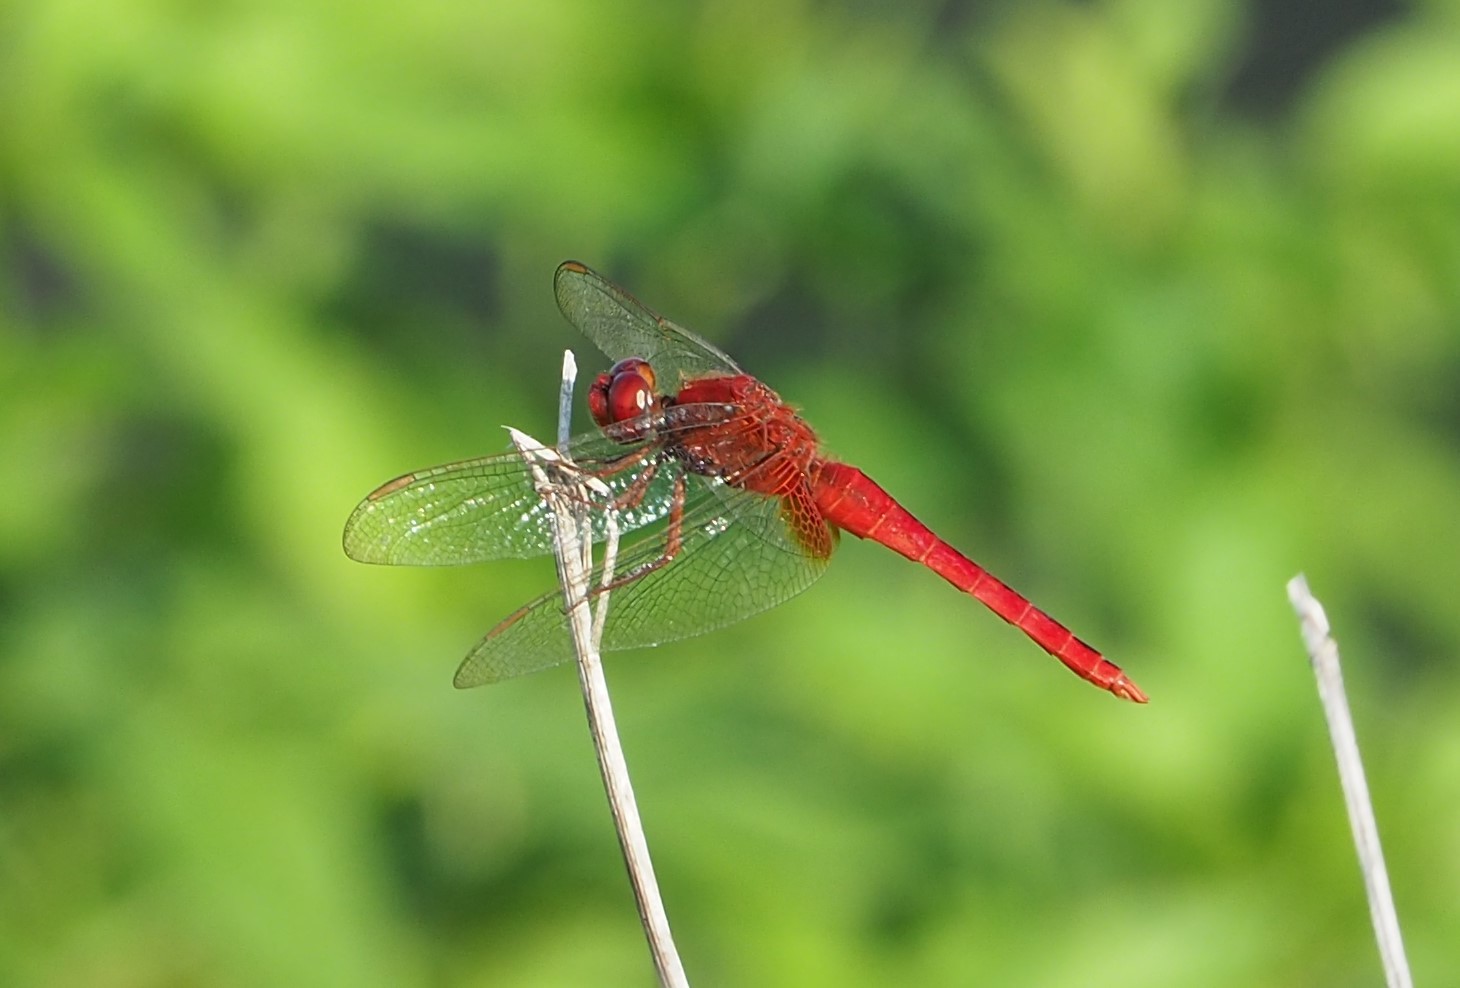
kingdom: Animalia
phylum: Arthropoda
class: Insecta
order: Odonata
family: Libellulidae
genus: Crocothemis
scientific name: Crocothemis servilia
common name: Scarlet skimmer
